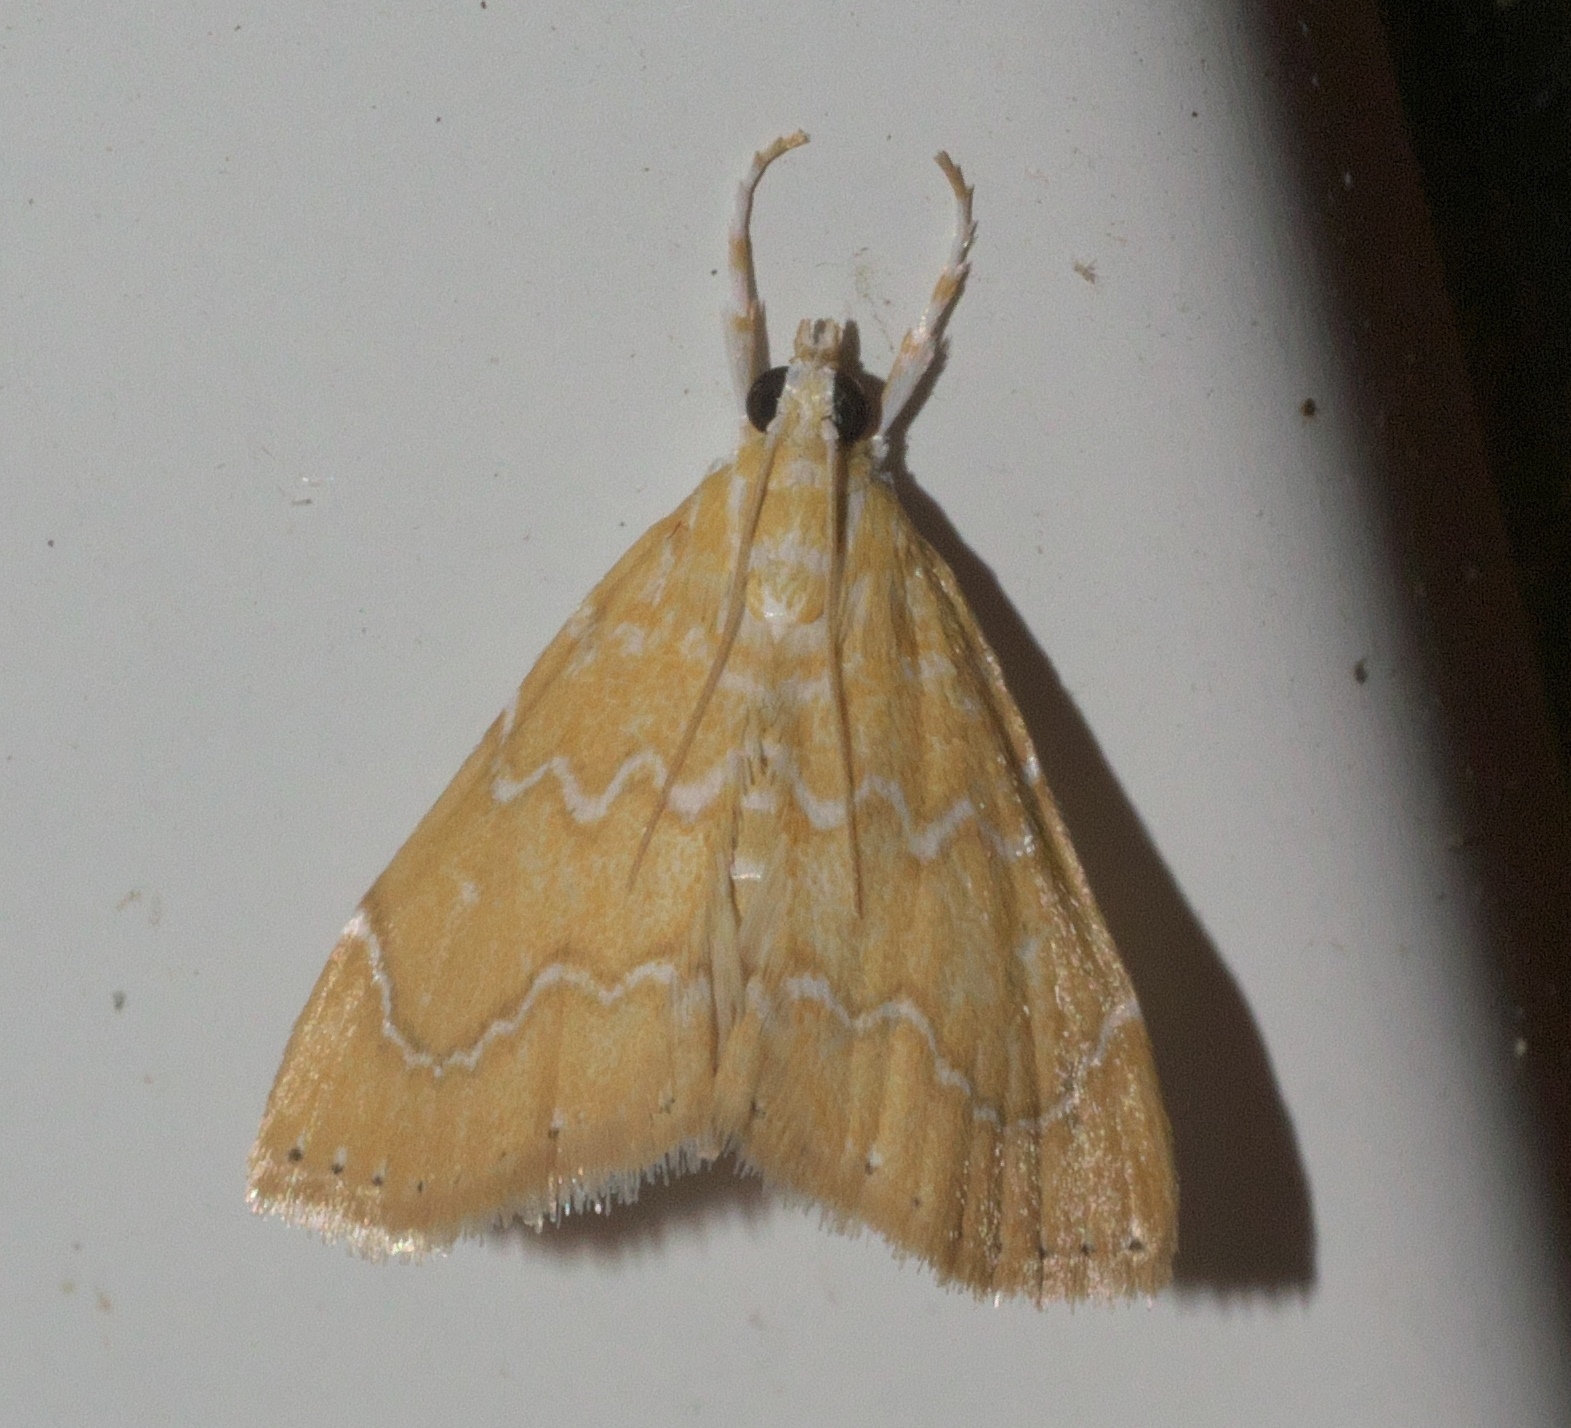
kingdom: Animalia
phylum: Arthropoda
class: Insecta
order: Lepidoptera
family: Crambidae
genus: Glaphyria
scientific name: Glaphyria sesquistrialis
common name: White-roped glaphyria
